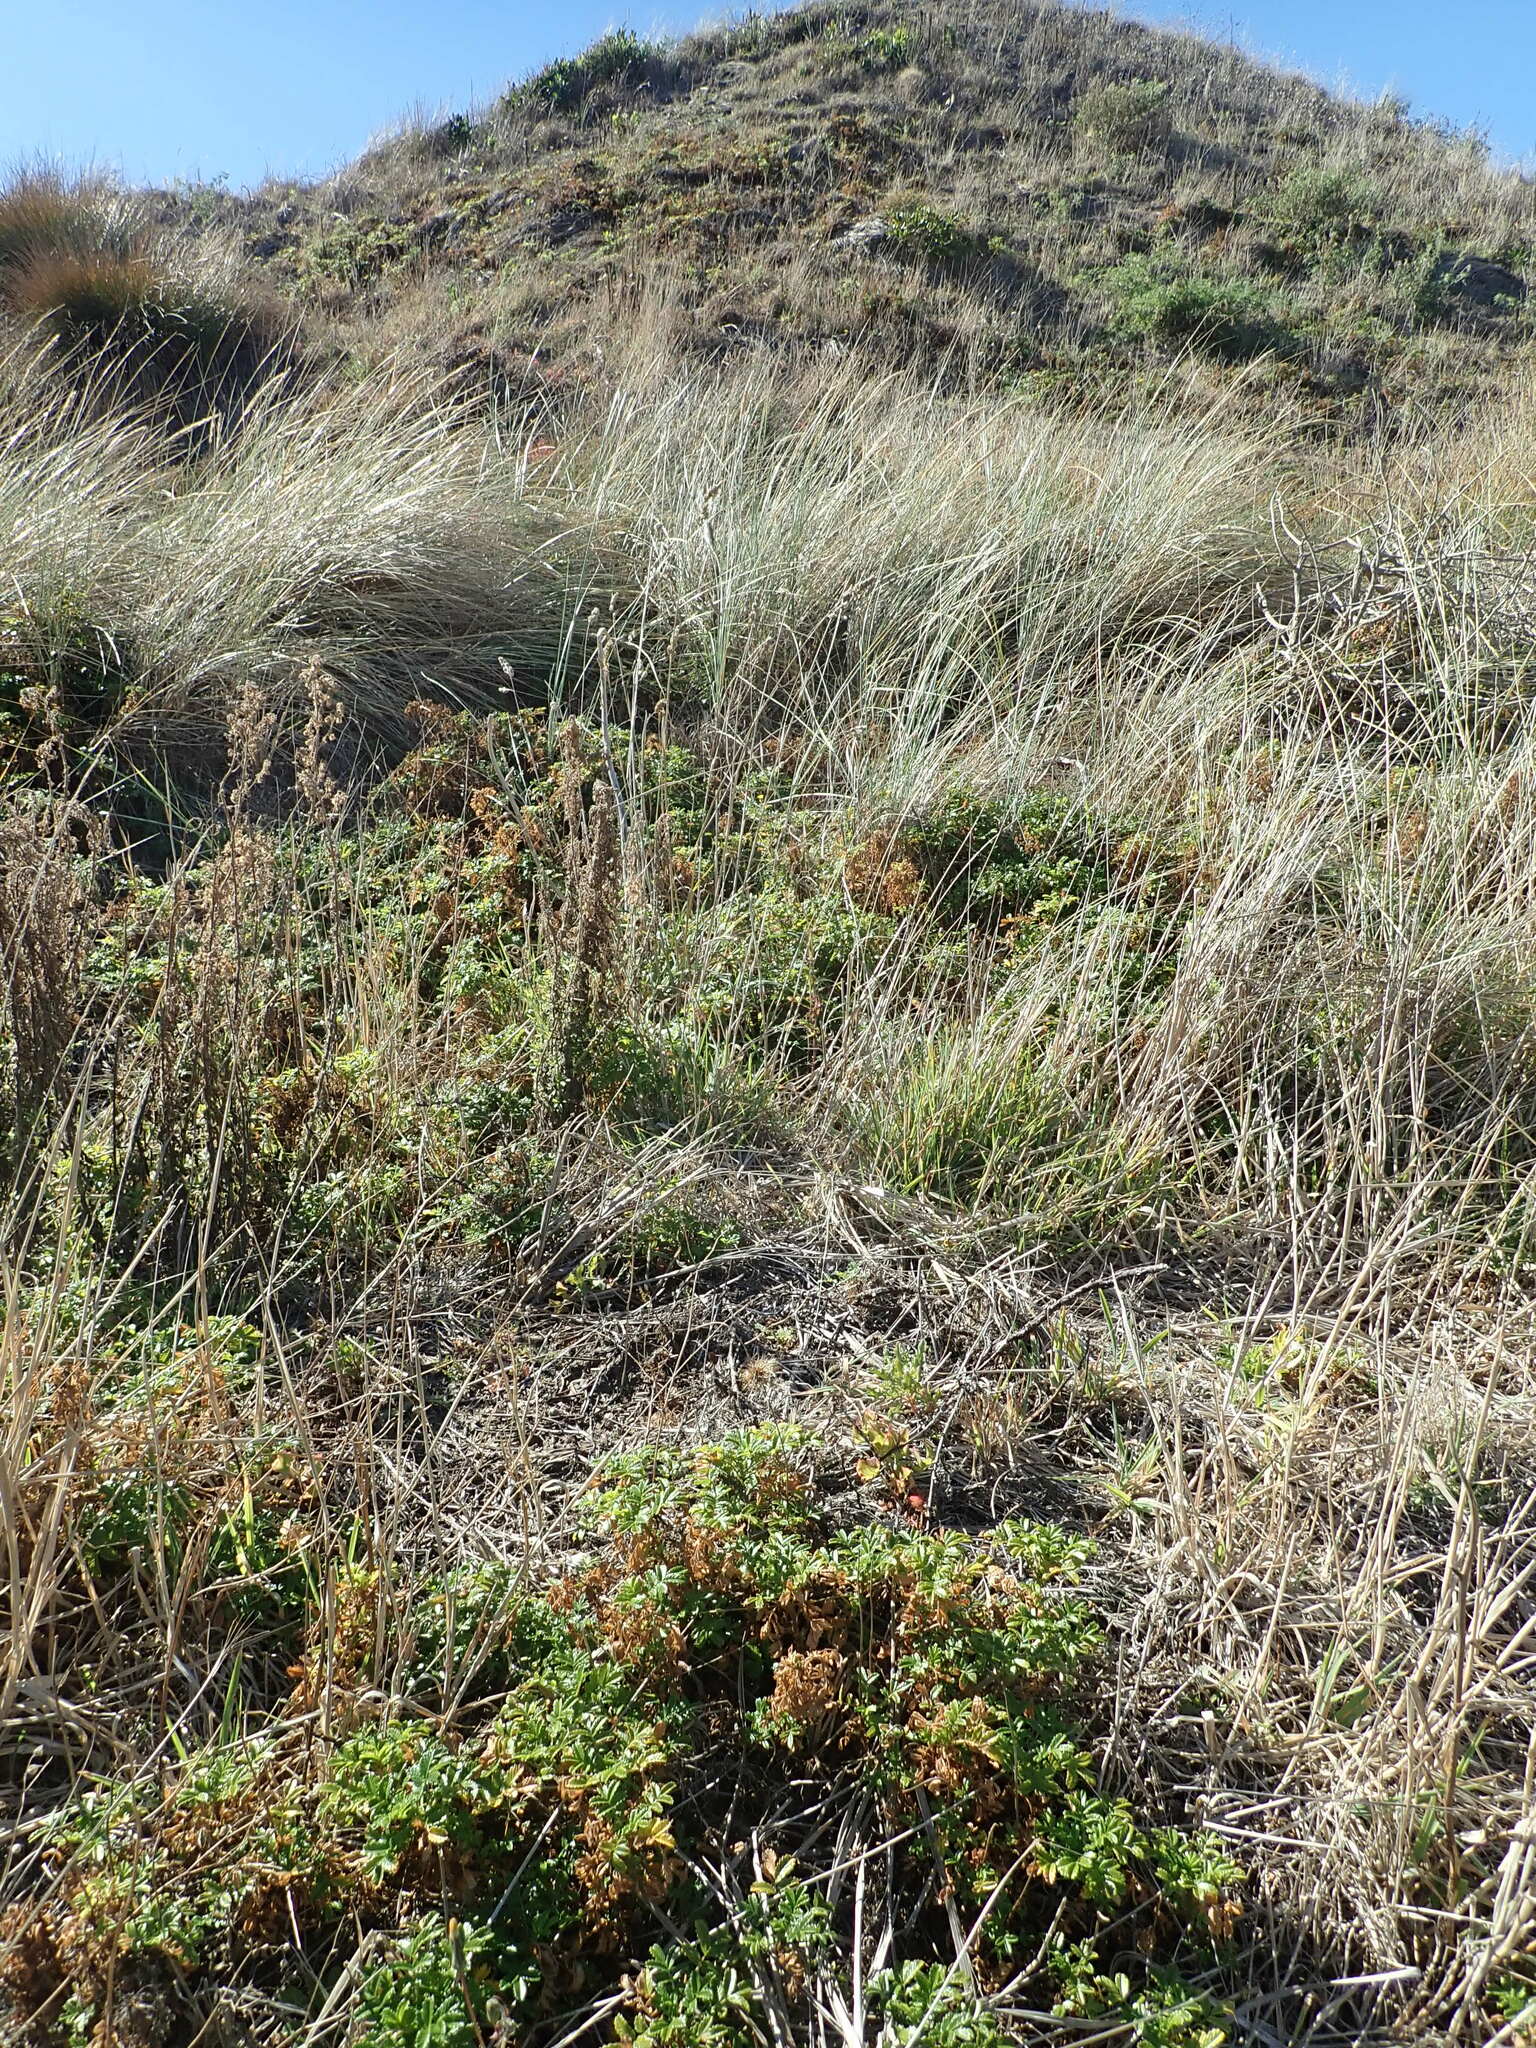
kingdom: Plantae
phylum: Tracheophyta
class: Magnoliopsida
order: Rosales
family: Rosaceae
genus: Acaena
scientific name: Acaena novae-zelandiae
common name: Pirri-pirri-bur
